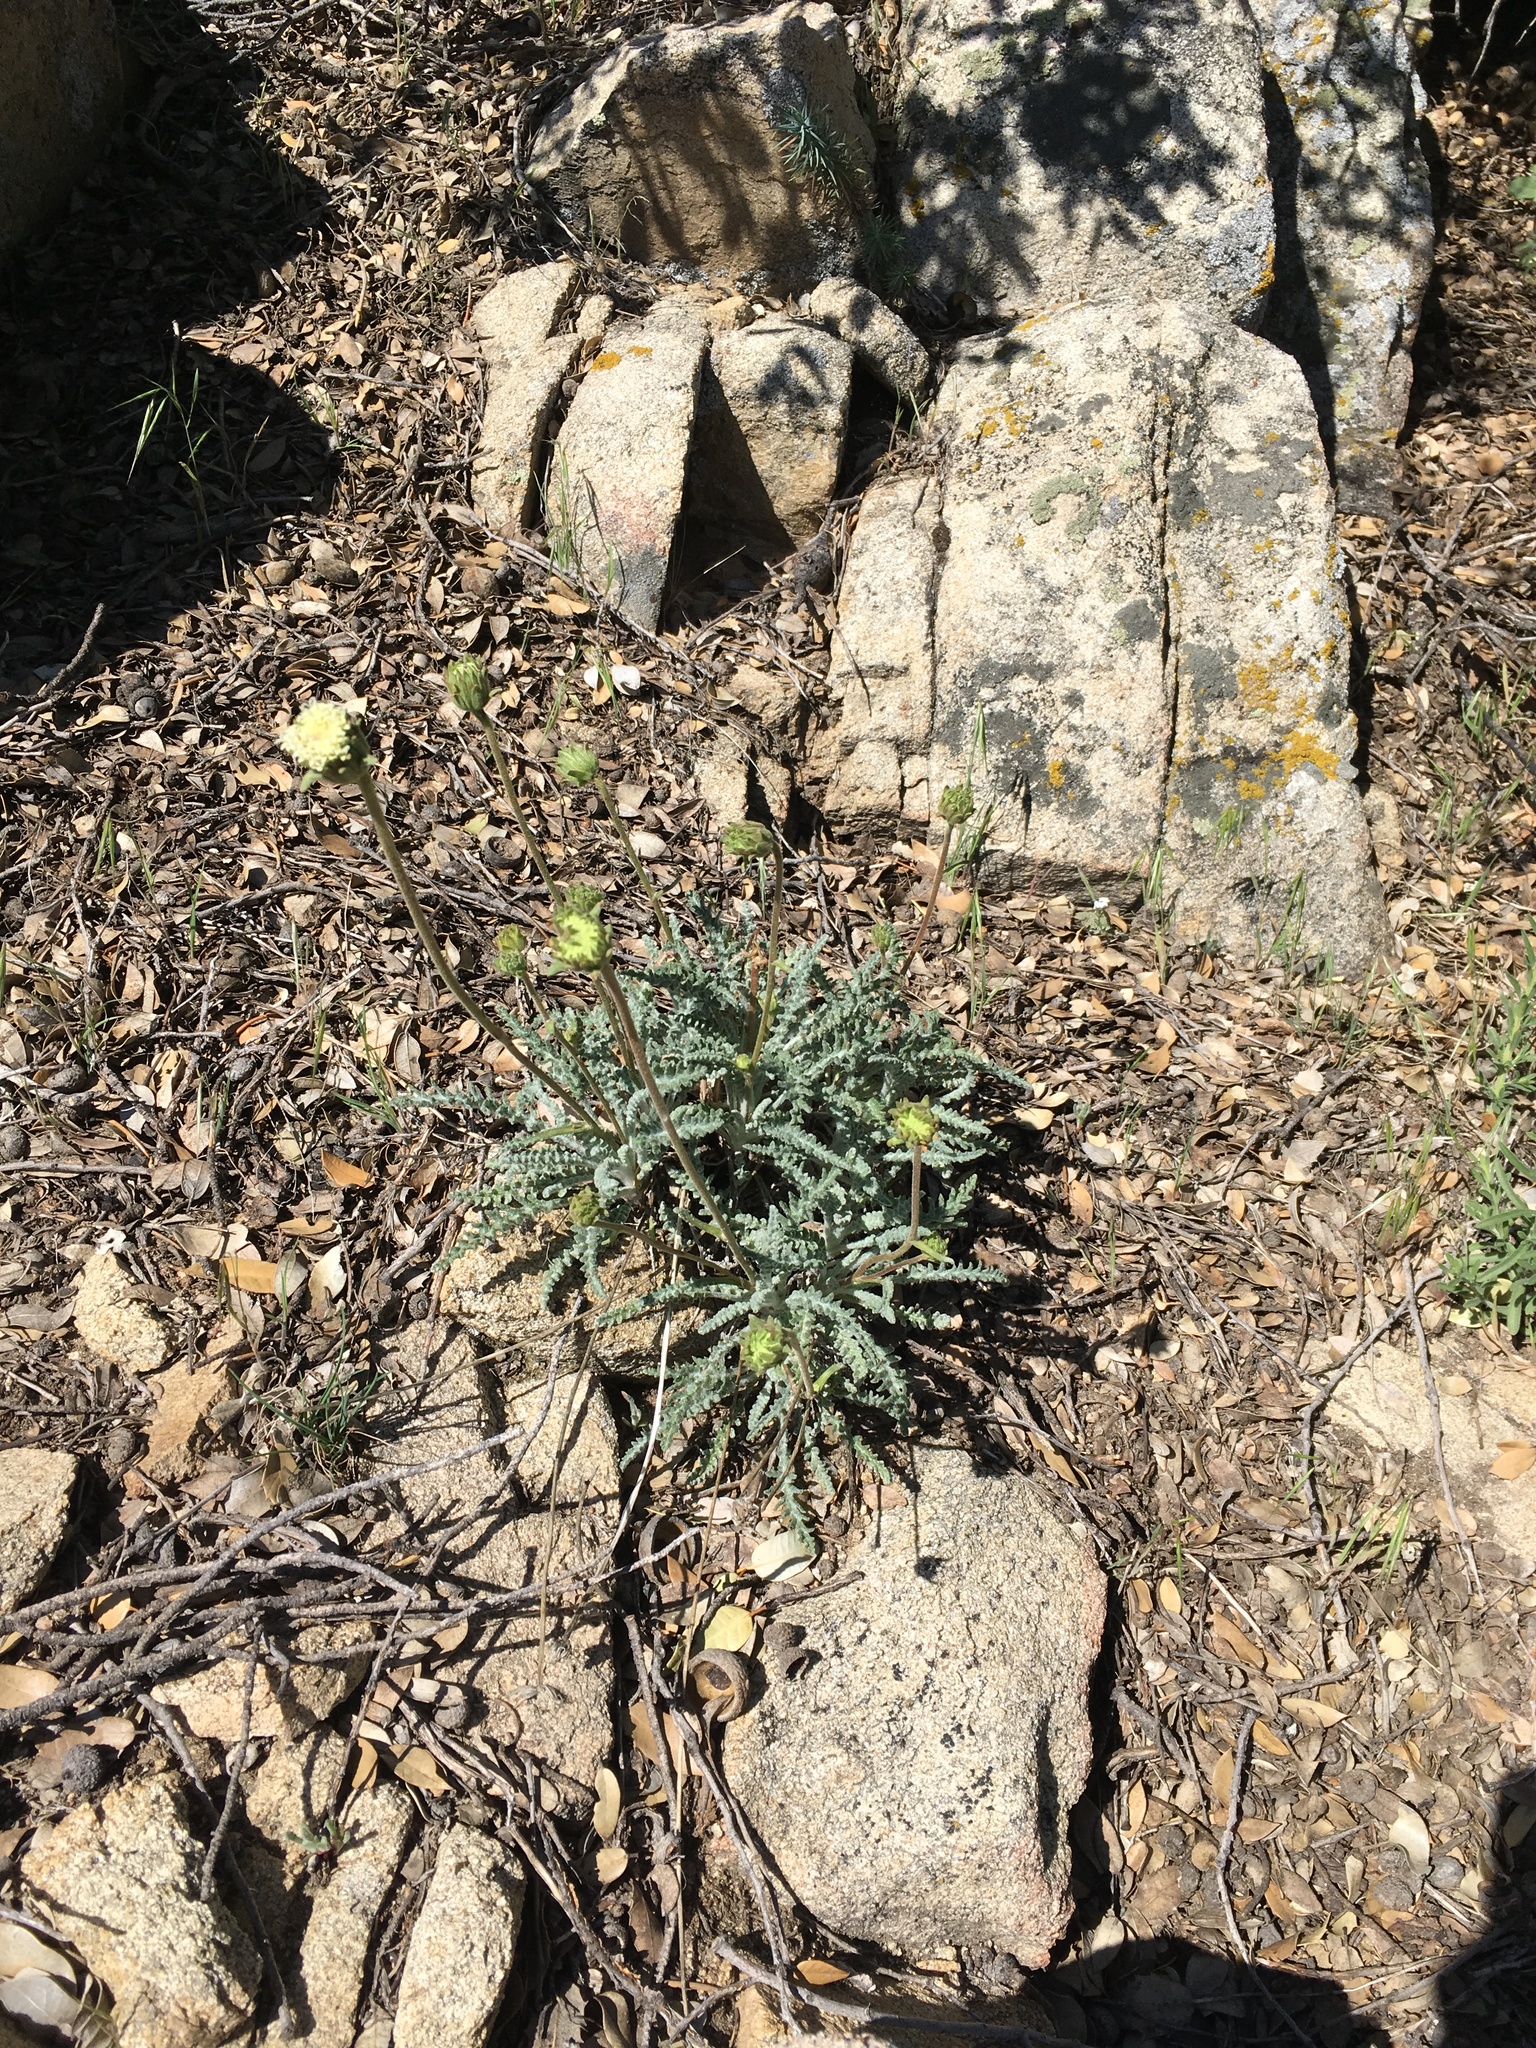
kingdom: Plantae
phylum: Tracheophyta
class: Magnoliopsida
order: Asterales
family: Asteraceae
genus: Chaenactis
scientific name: Chaenactis santolinoides
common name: Santolina pincushion
